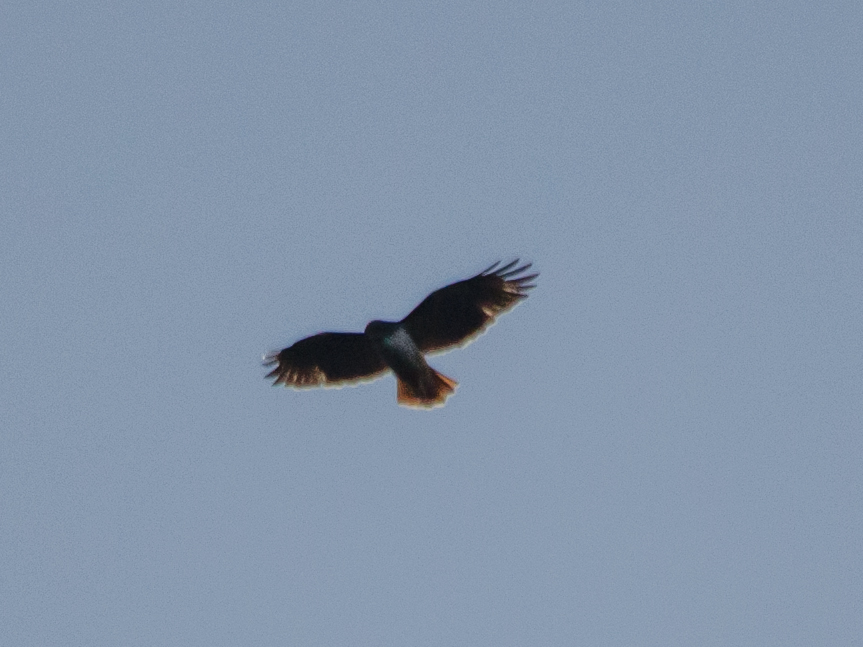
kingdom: Animalia
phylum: Chordata
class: Aves
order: Accipitriformes
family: Accipitridae
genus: Buteo
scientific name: Buteo jamaicensis
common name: Red-tailed hawk
